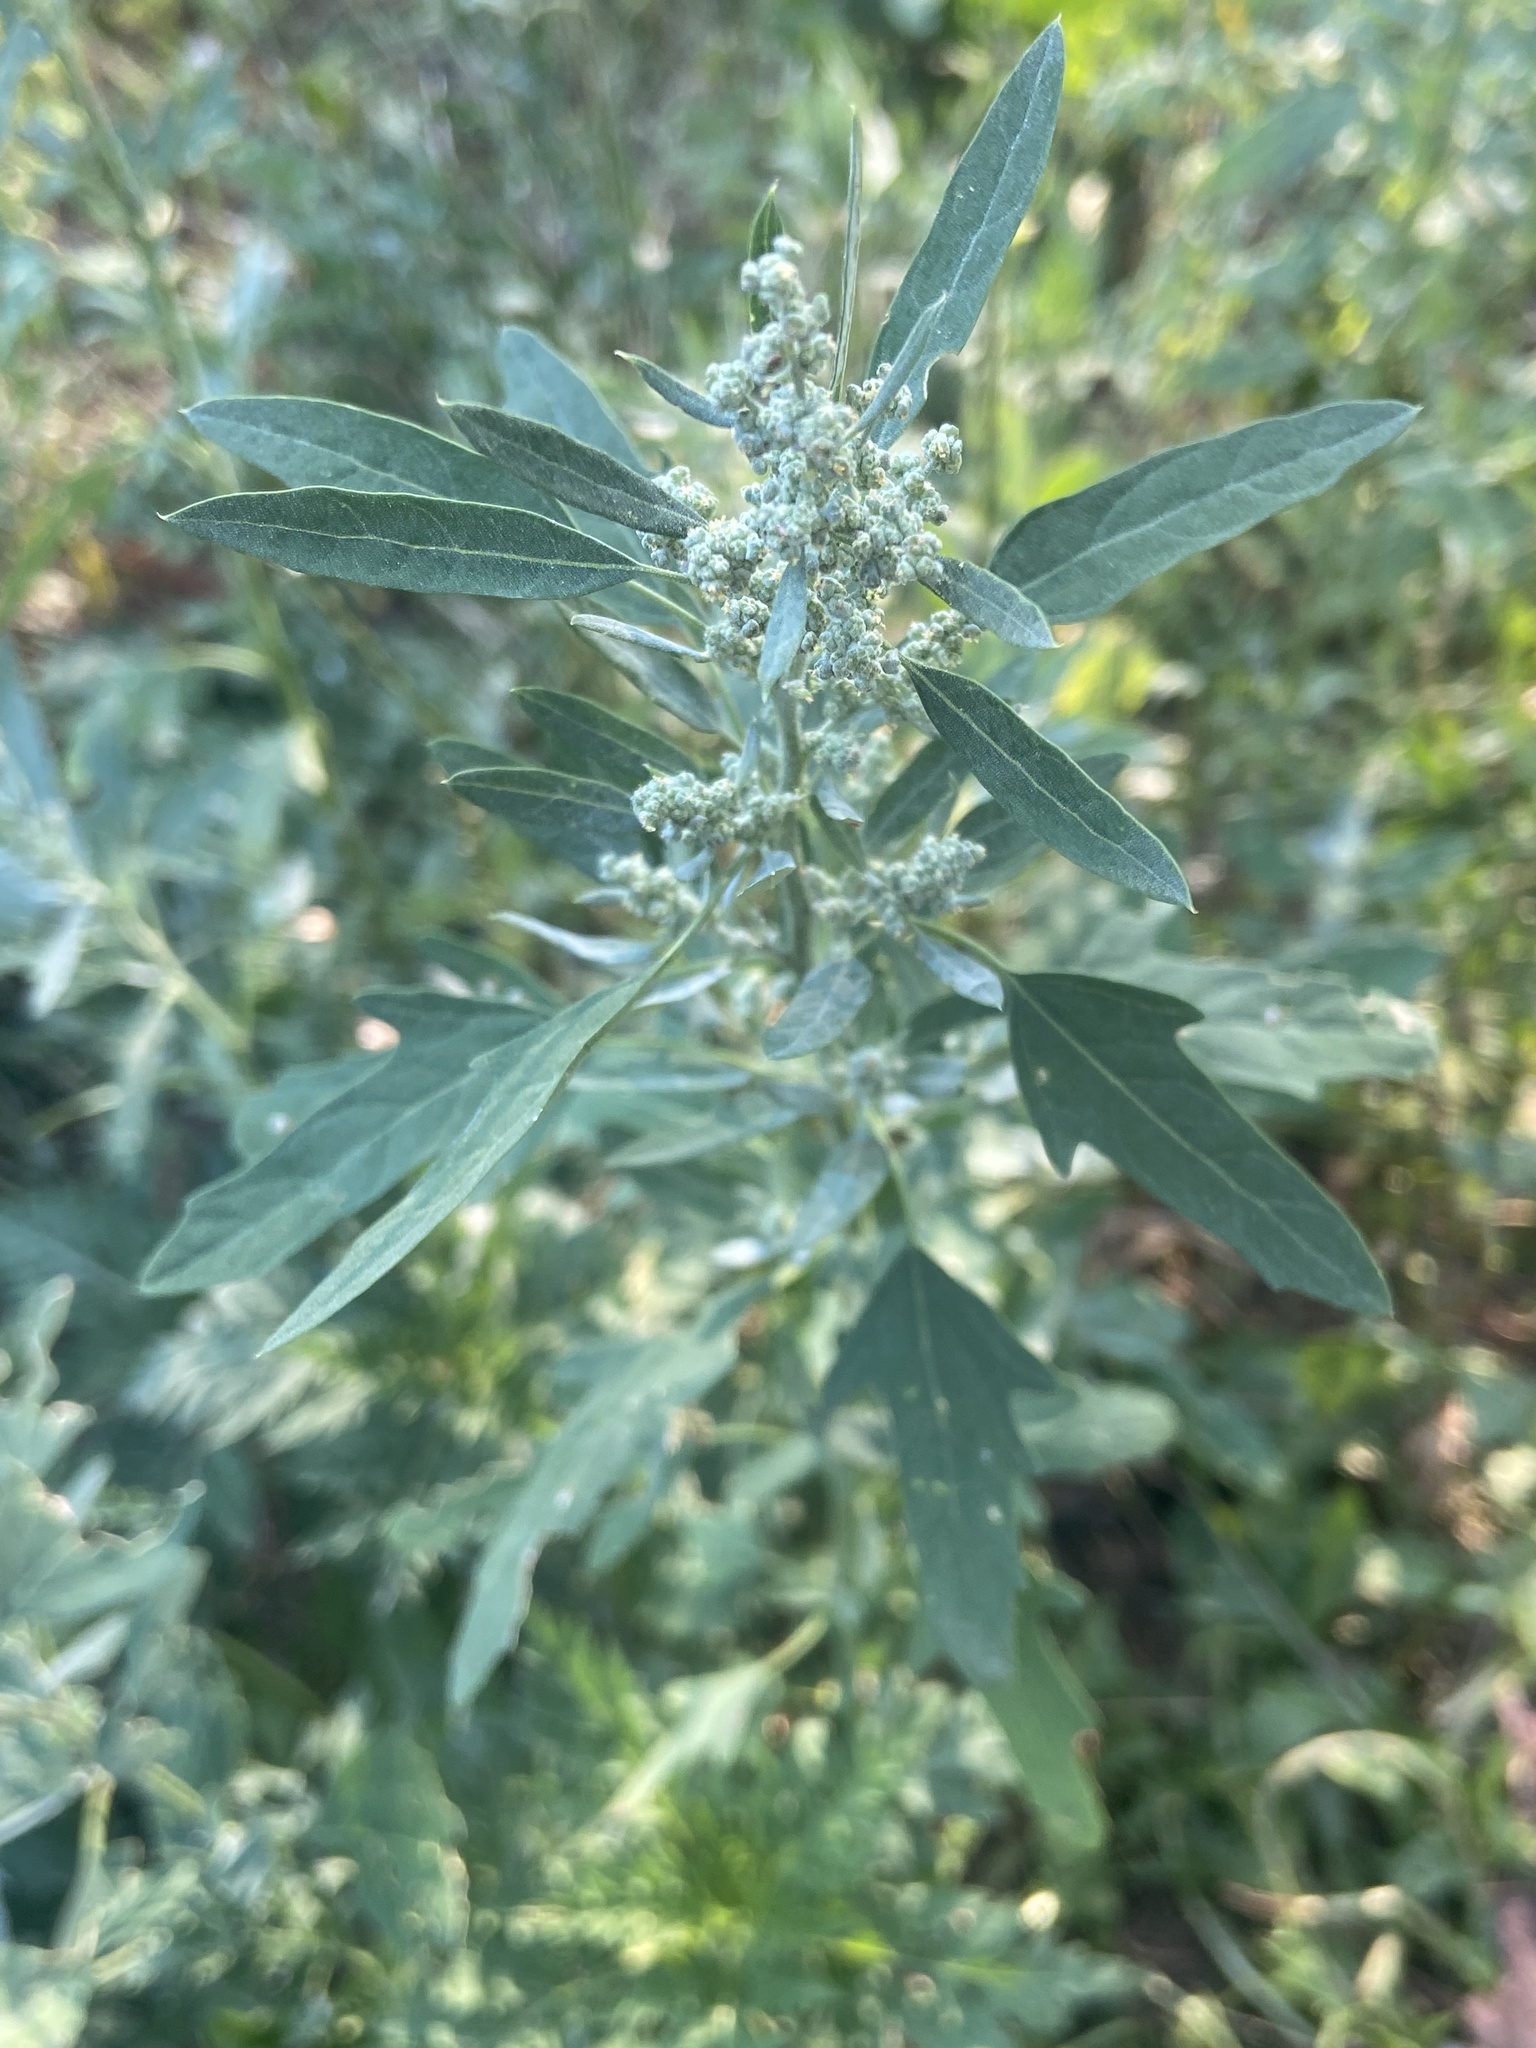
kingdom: Plantae
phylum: Tracheophyta
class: Magnoliopsida
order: Caryophyllales
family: Amaranthaceae
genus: Chenopodium
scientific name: Chenopodium album
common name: Fat-hen
